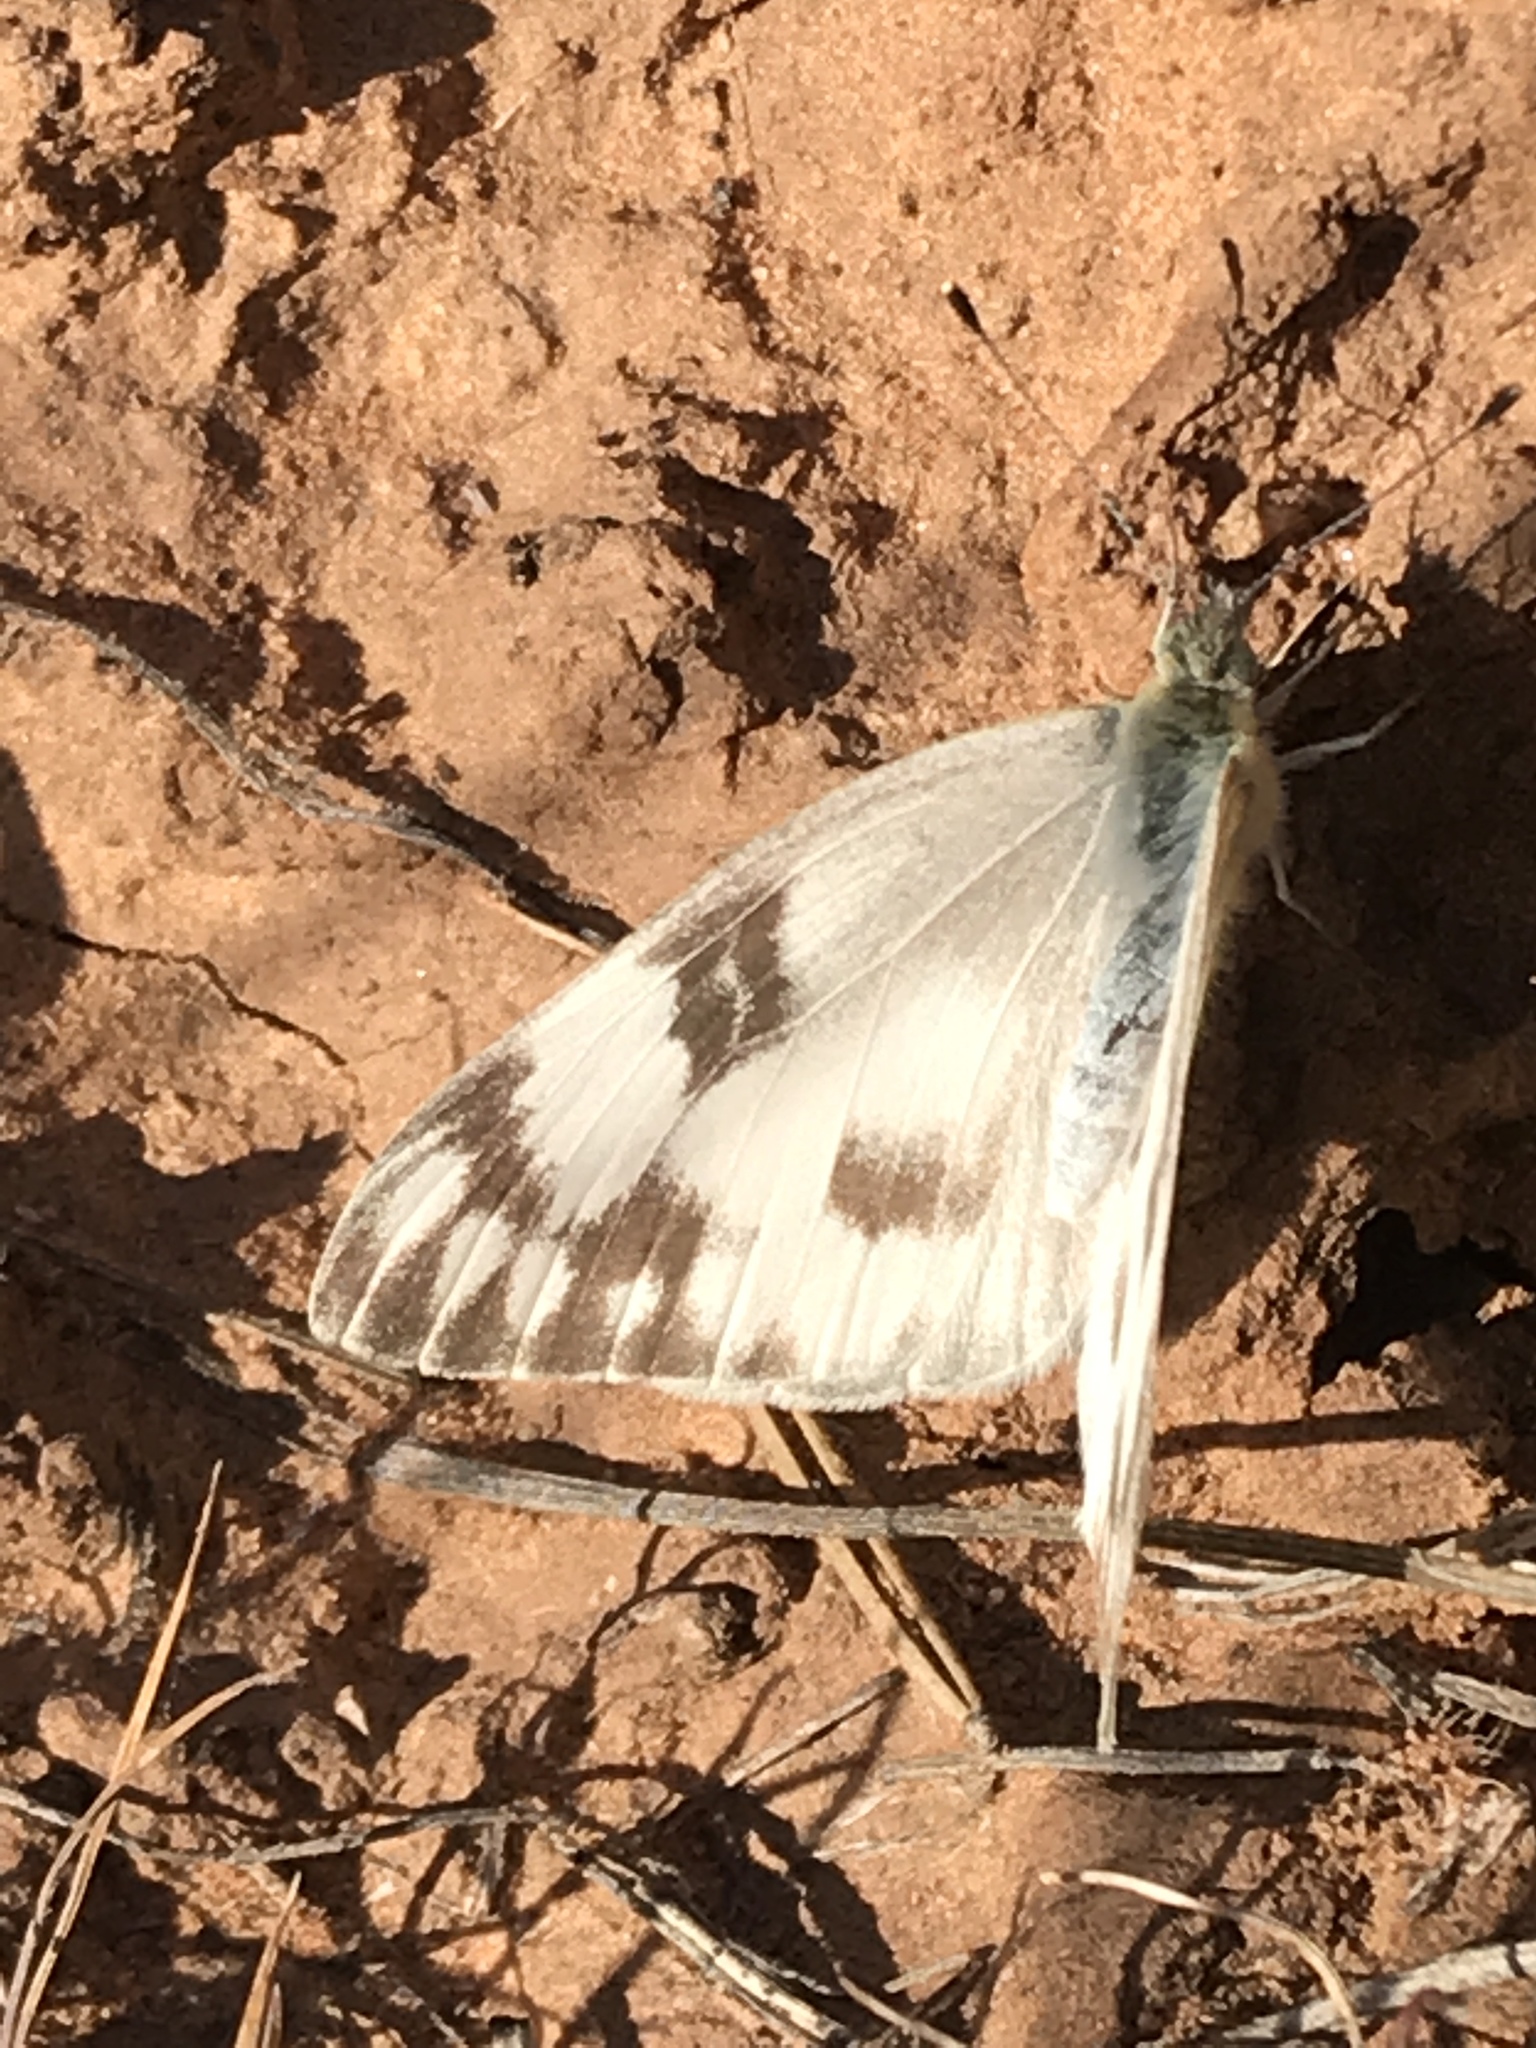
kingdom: Animalia
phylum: Arthropoda
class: Insecta
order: Lepidoptera
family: Pieridae
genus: Pontia
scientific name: Pontia protodice
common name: Checkered white
